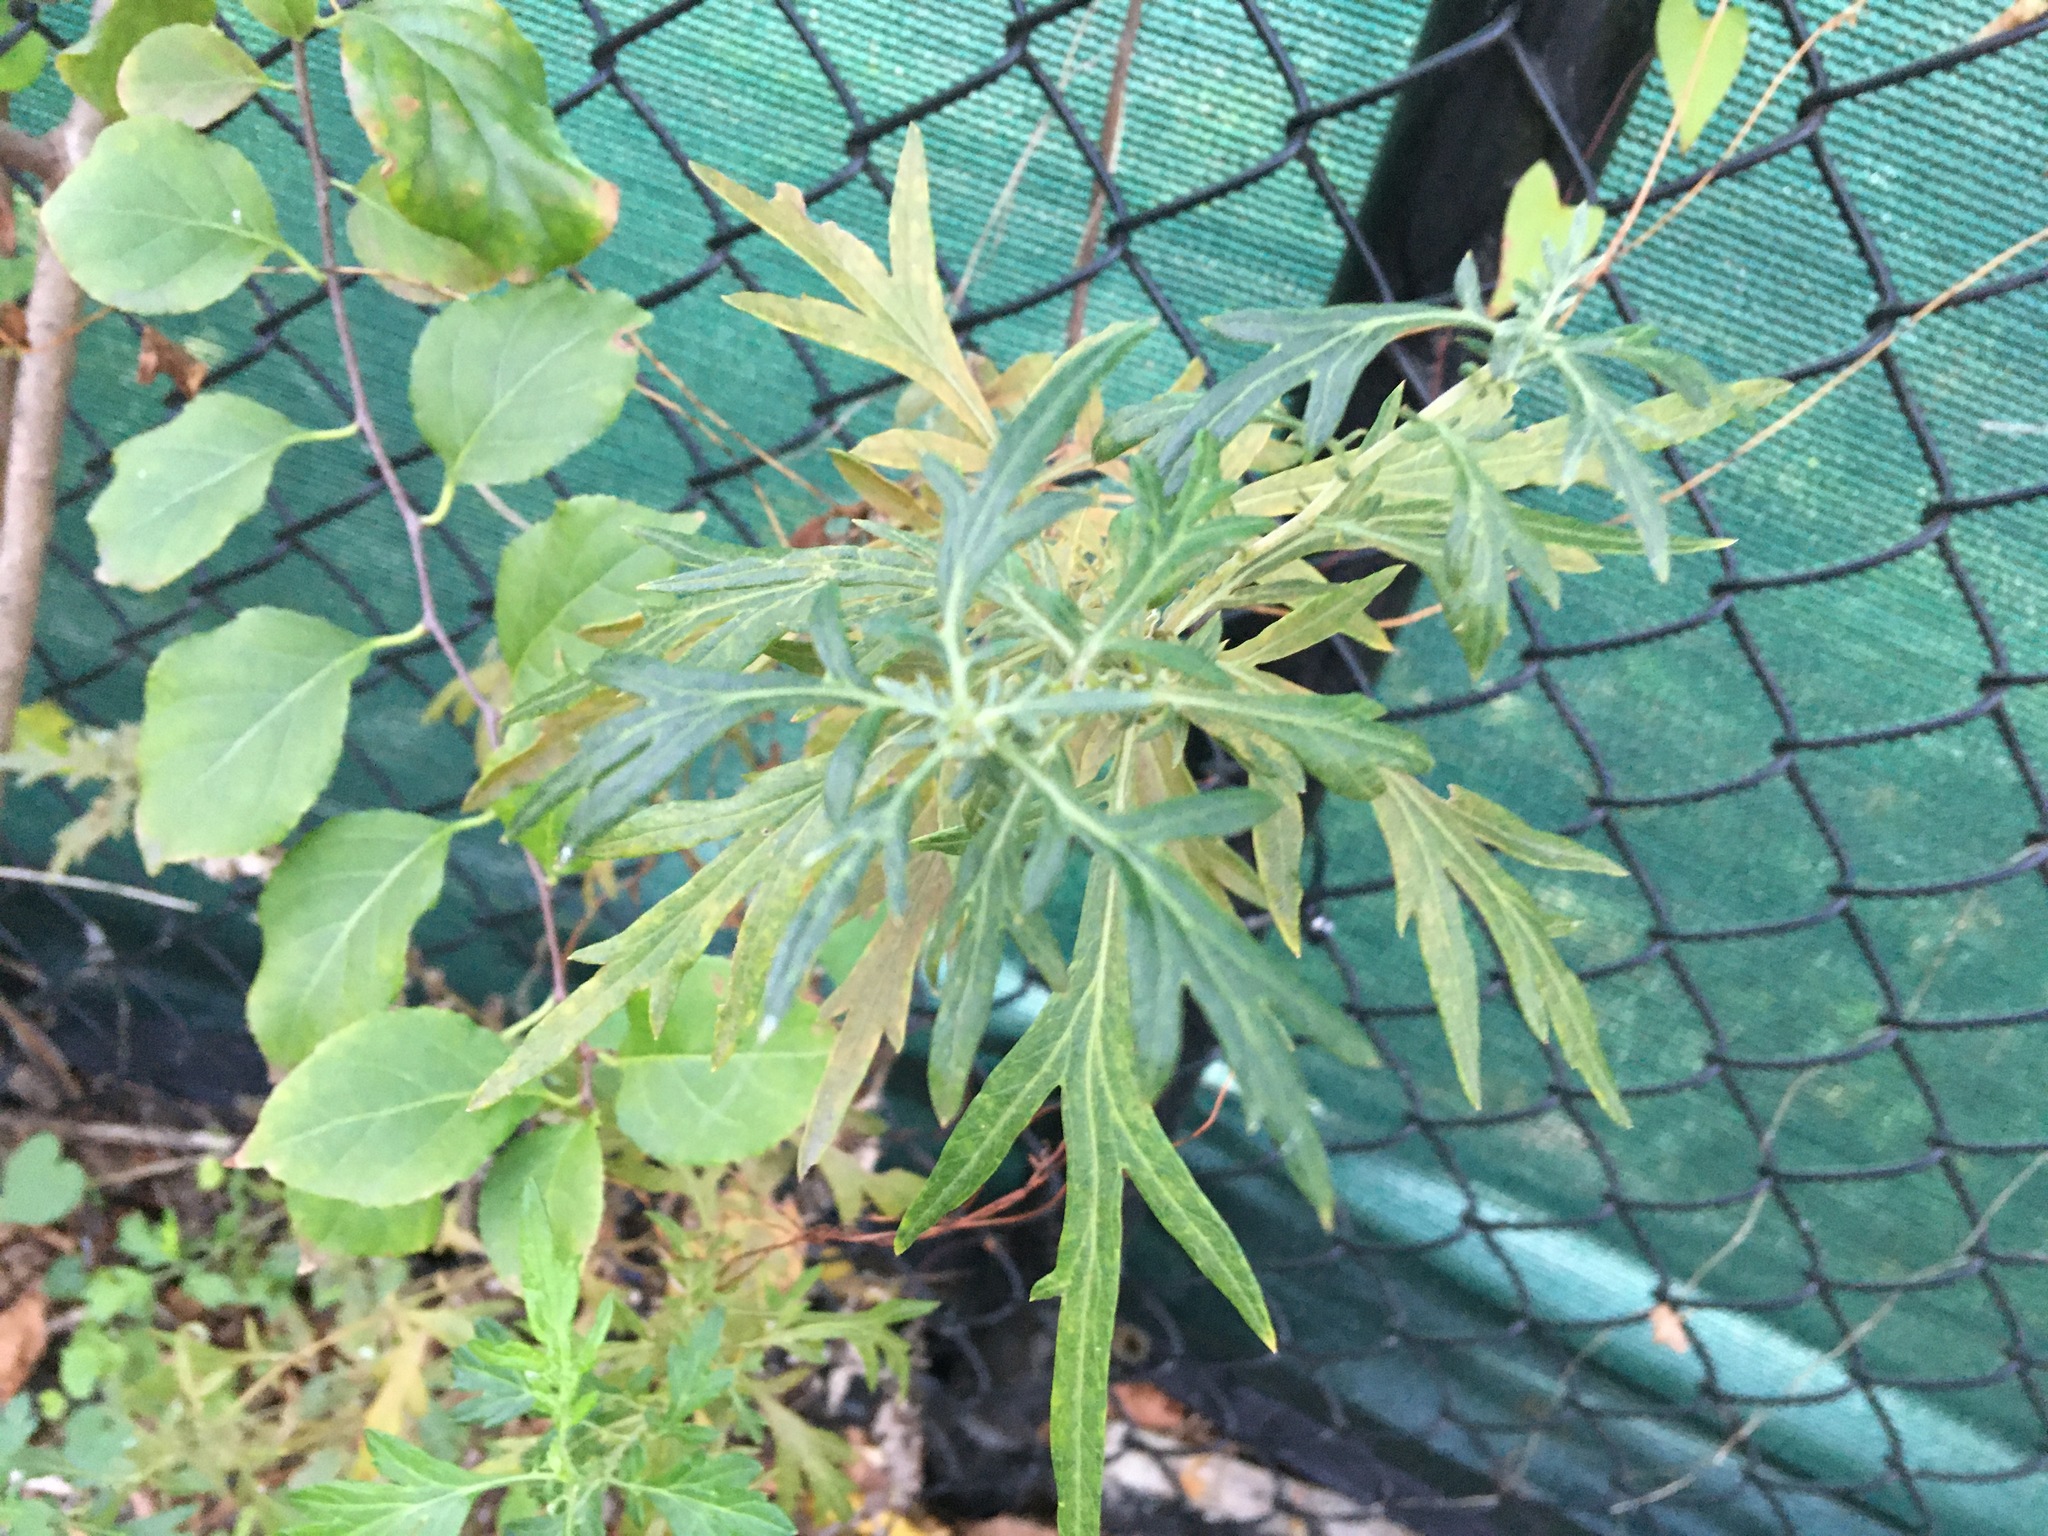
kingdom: Plantae
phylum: Tracheophyta
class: Magnoliopsida
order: Asterales
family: Asteraceae
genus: Artemisia
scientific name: Artemisia vulgaris
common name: Mugwort
